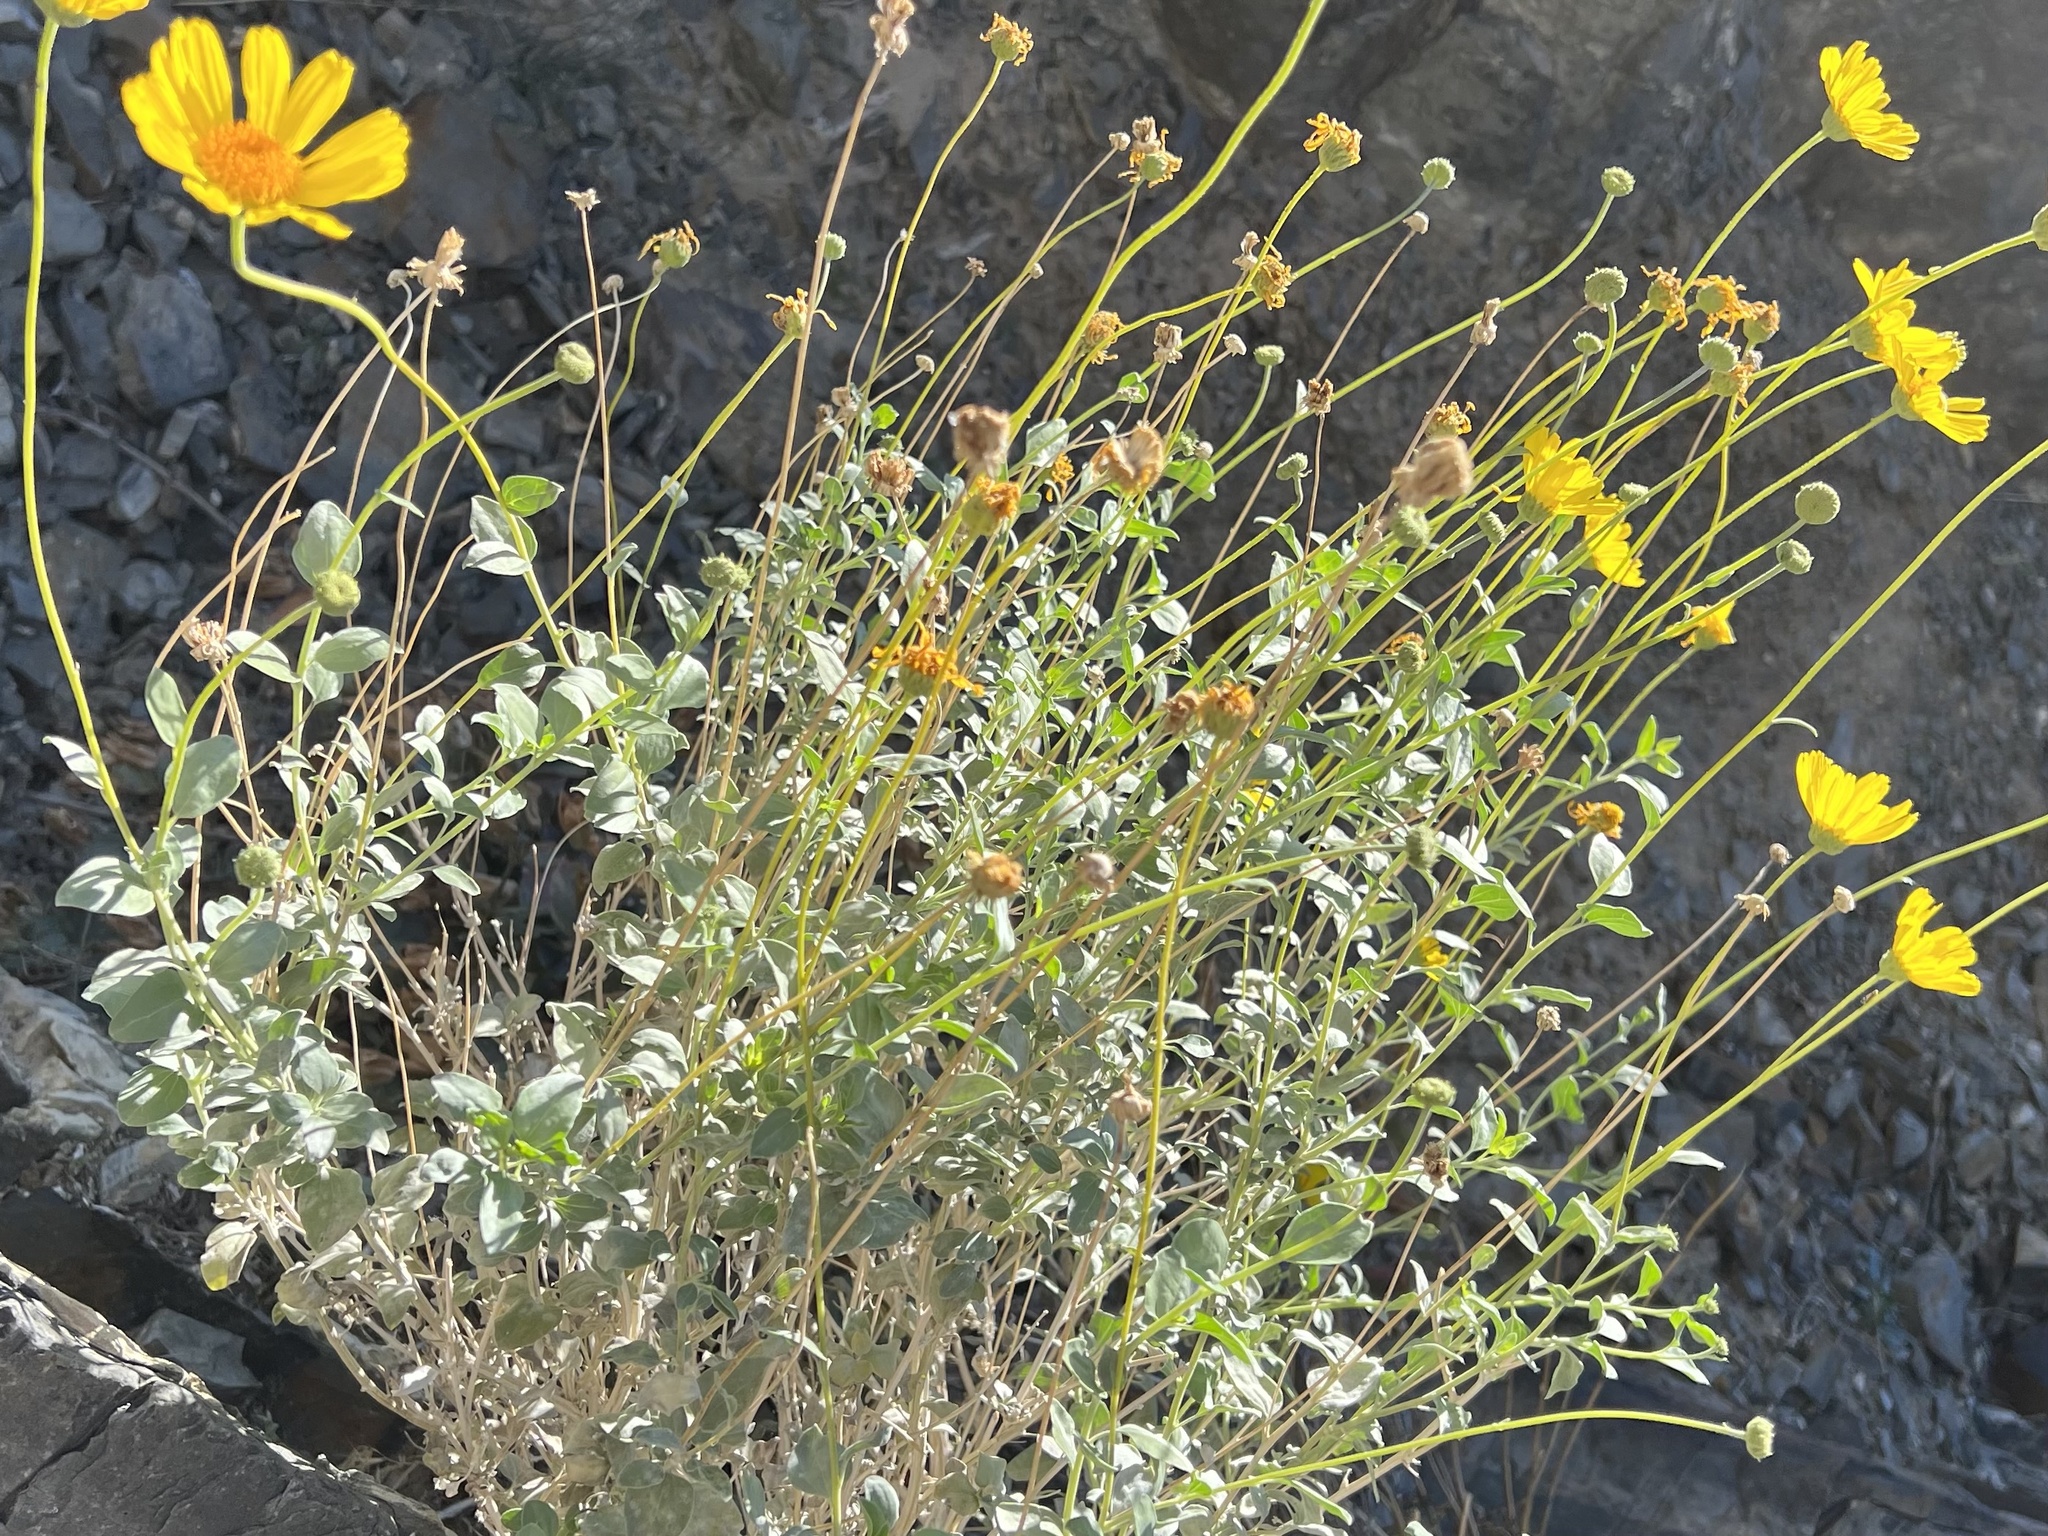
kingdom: Plantae
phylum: Tracheophyta
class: Magnoliopsida
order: Asterales
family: Asteraceae
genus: Encelia
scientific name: Encelia actoni
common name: Acton encelia
